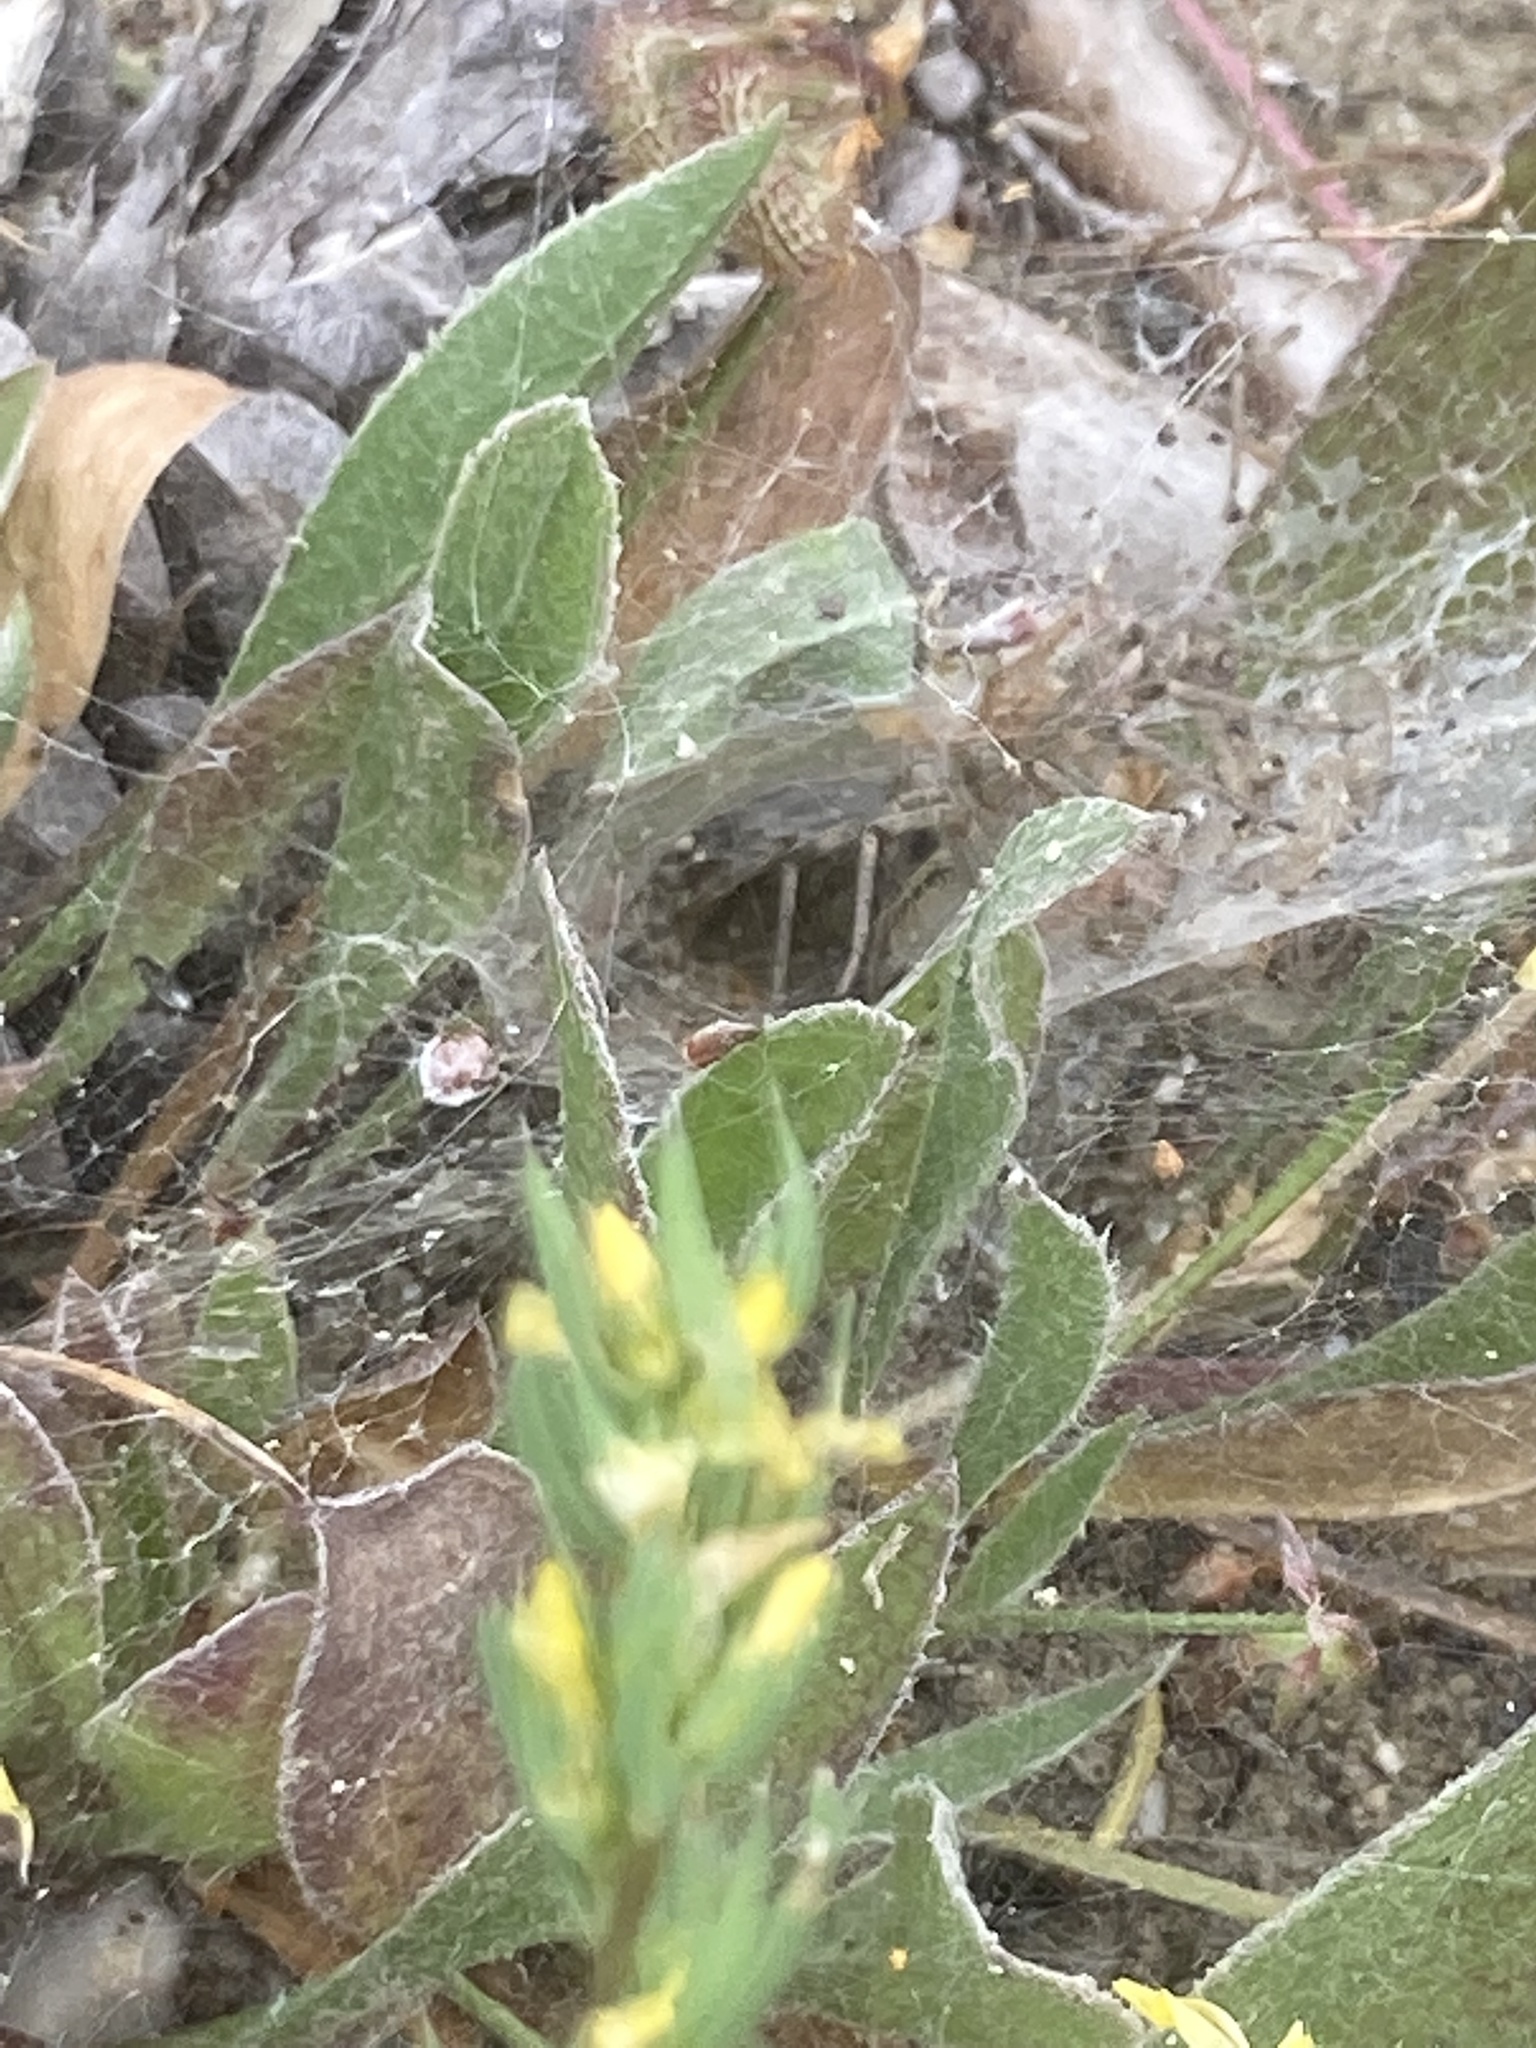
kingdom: Plantae
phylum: Tracheophyta
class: Magnoliopsida
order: Malpighiales
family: Linaceae
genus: Linum
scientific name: Linum
